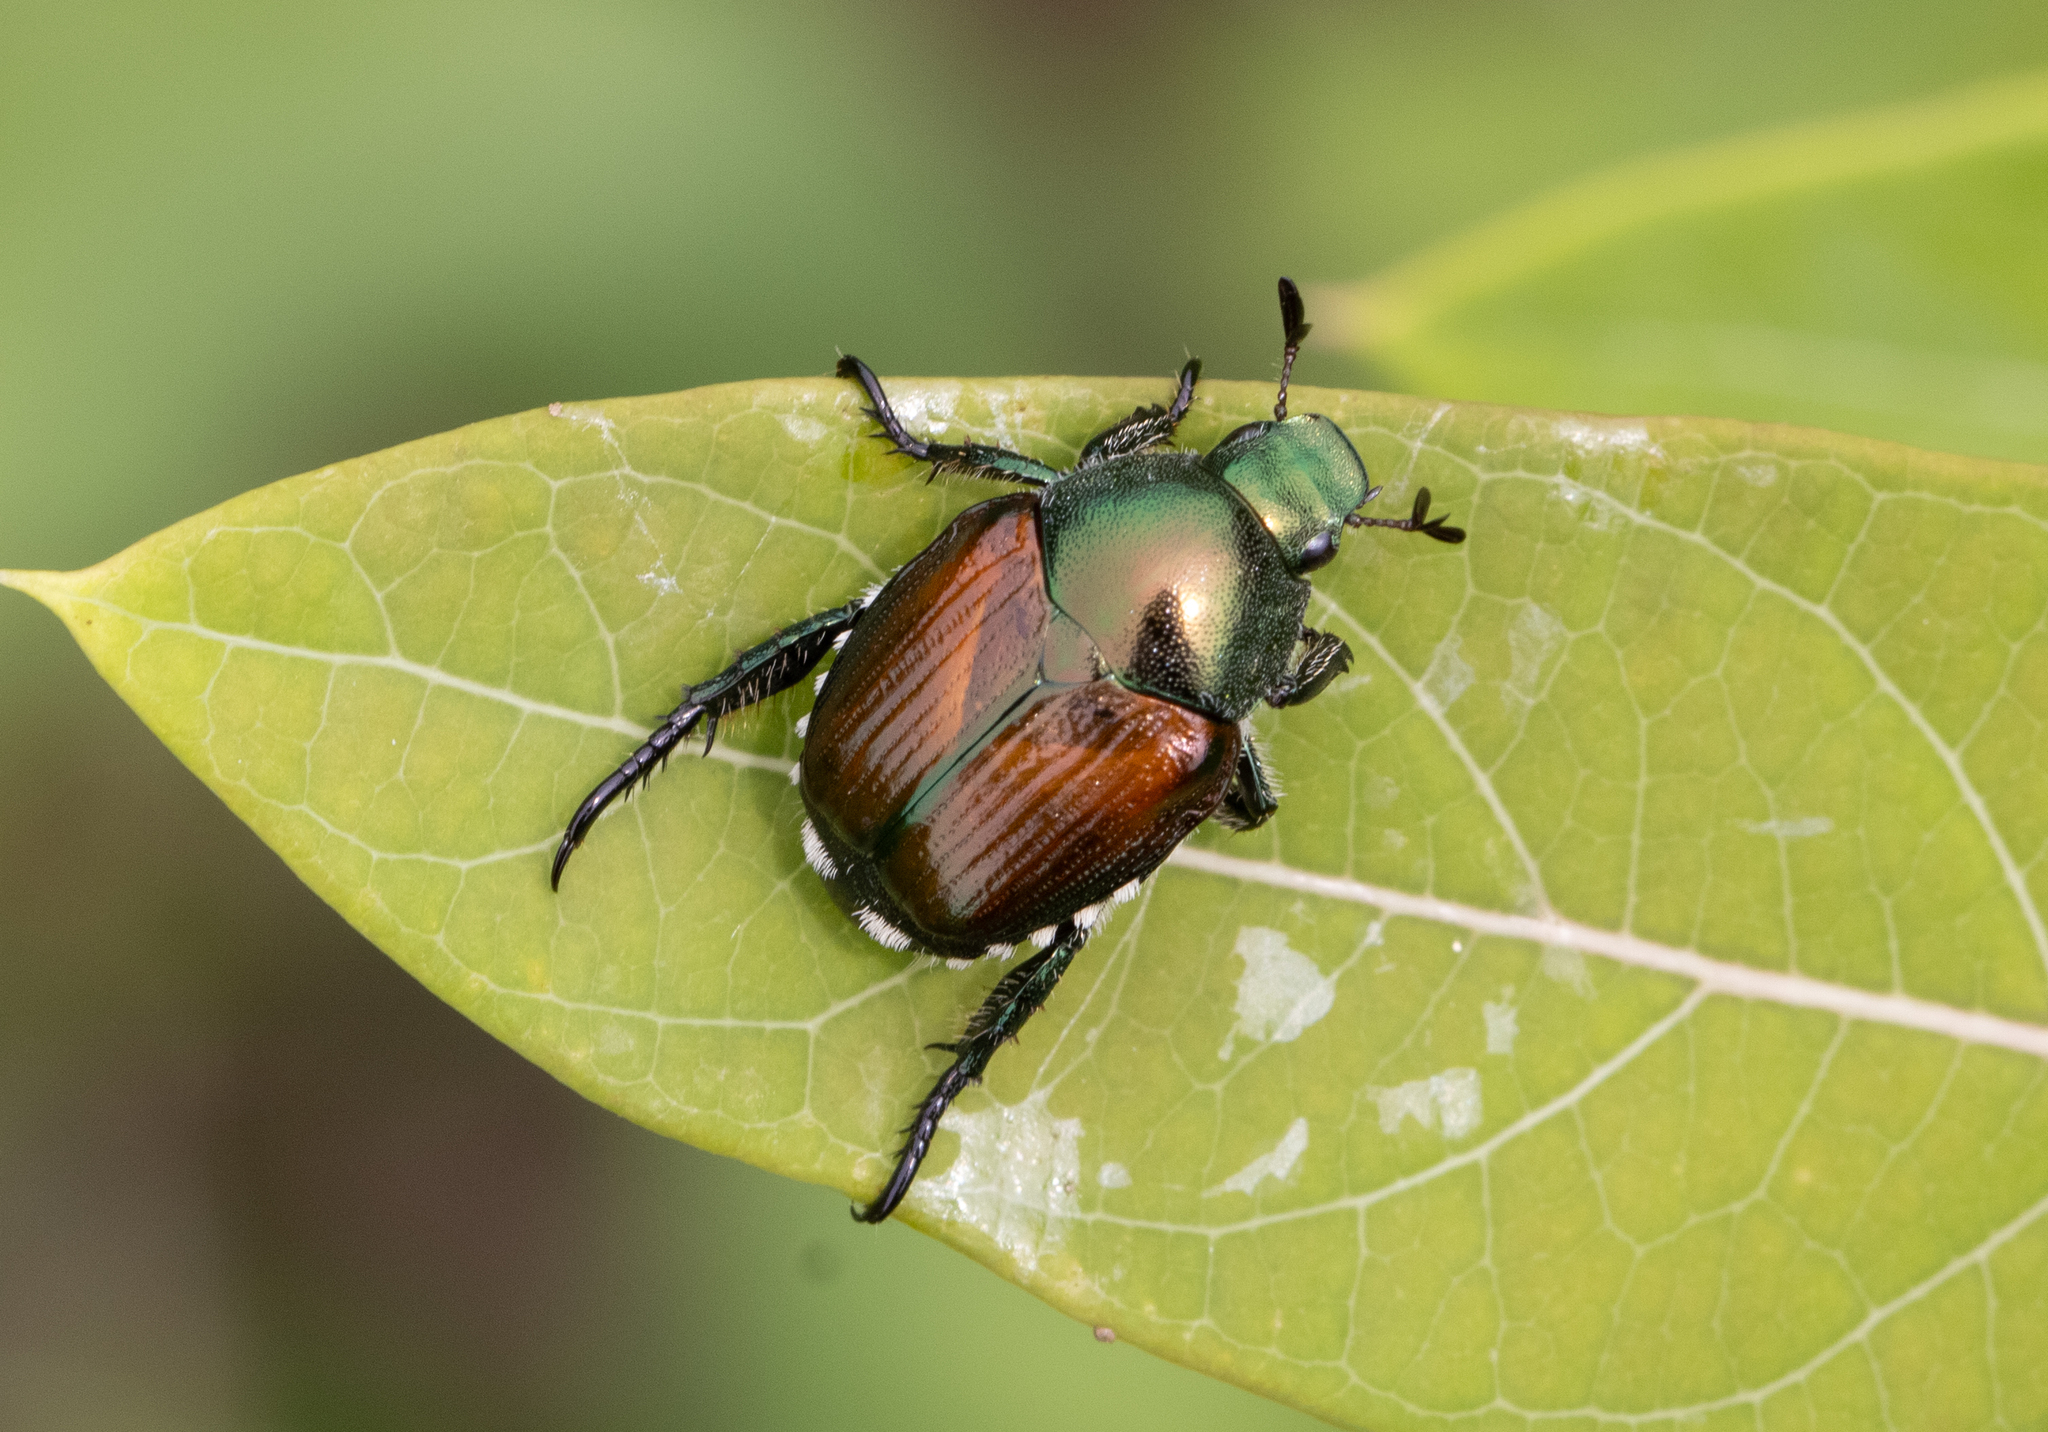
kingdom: Animalia
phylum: Arthropoda
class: Insecta
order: Coleoptera
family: Scarabaeidae
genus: Popillia
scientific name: Popillia japonica
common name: Japanese beetle
